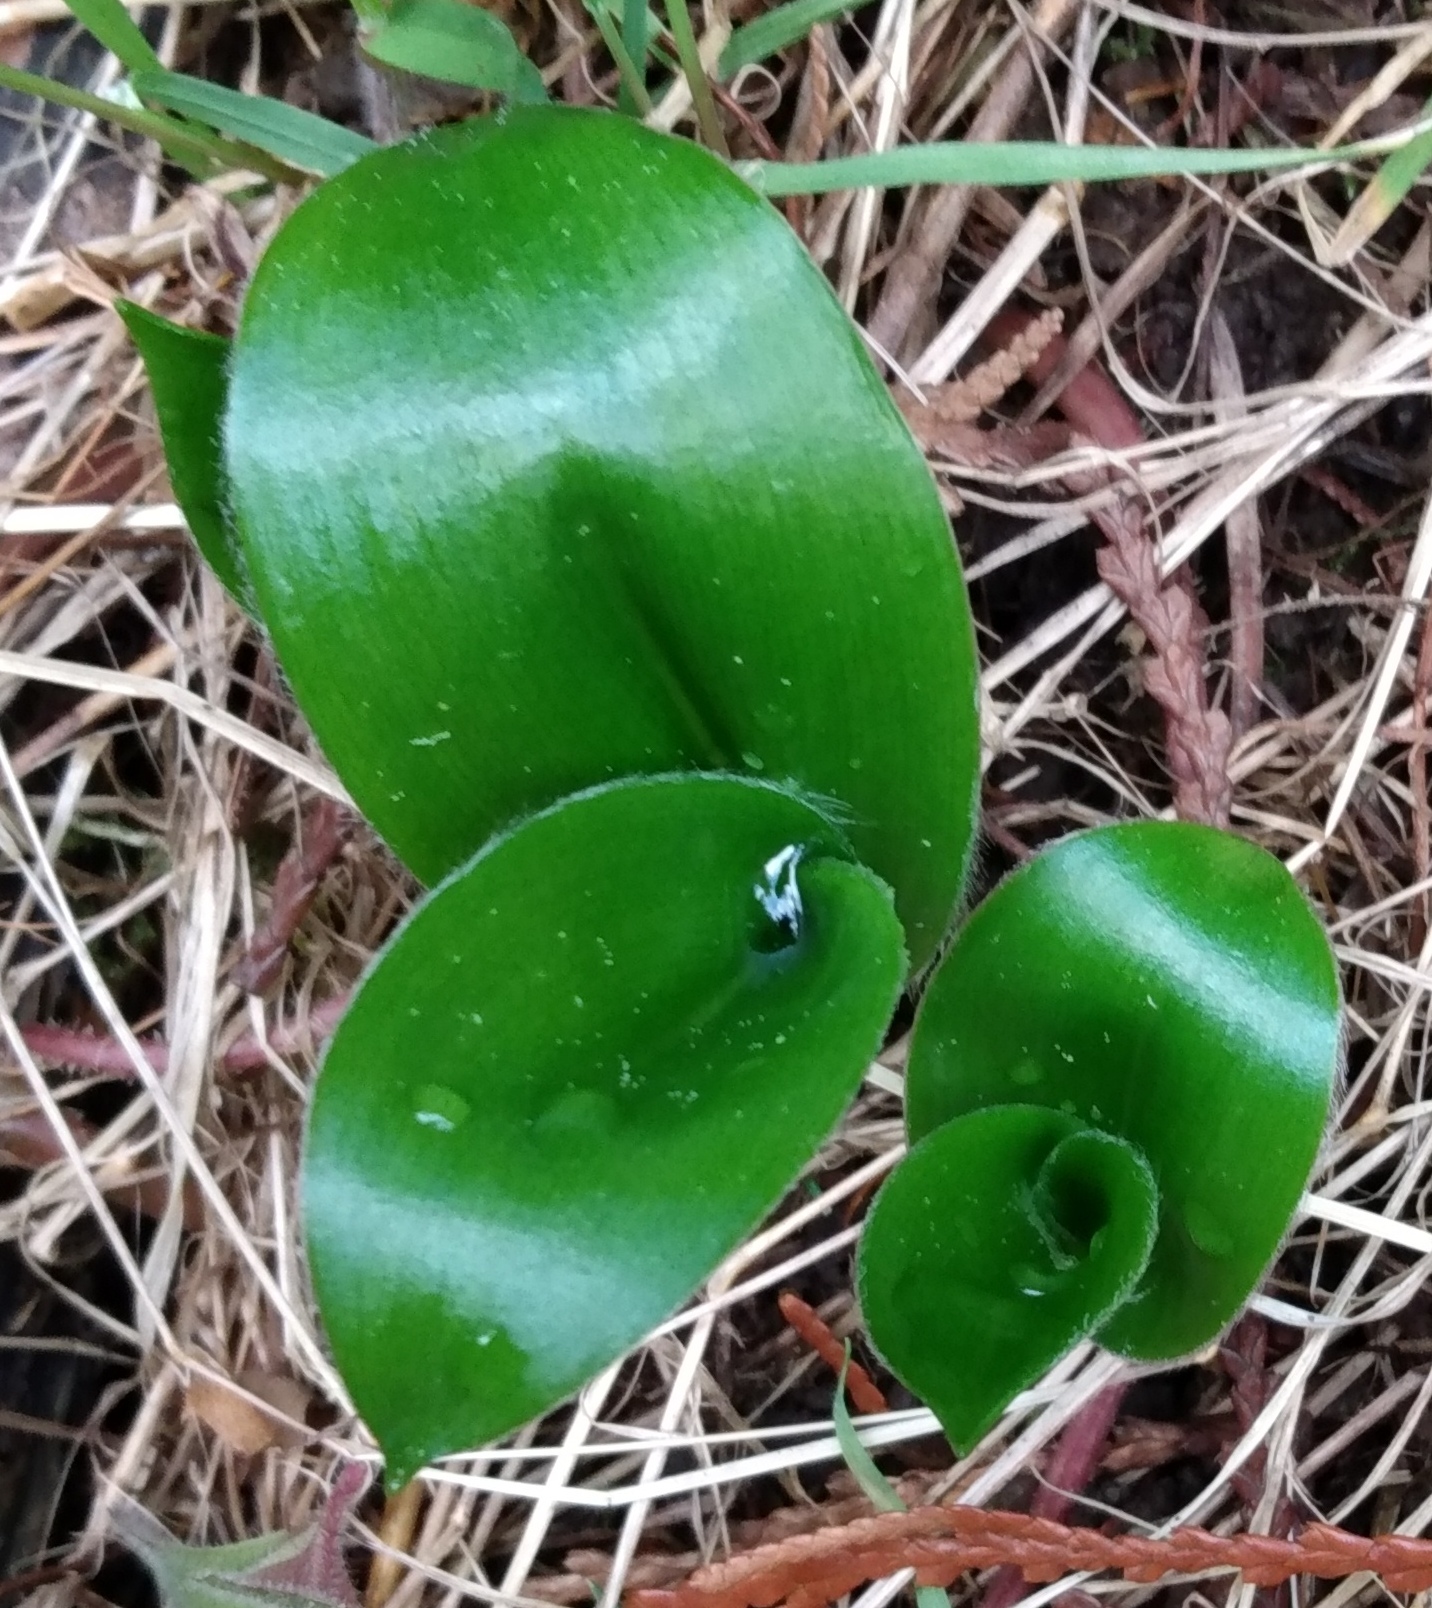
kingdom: Plantae
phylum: Tracheophyta
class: Liliopsida
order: Liliales
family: Liliaceae
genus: Clintonia
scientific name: Clintonia uniflora
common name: Queen's cup
